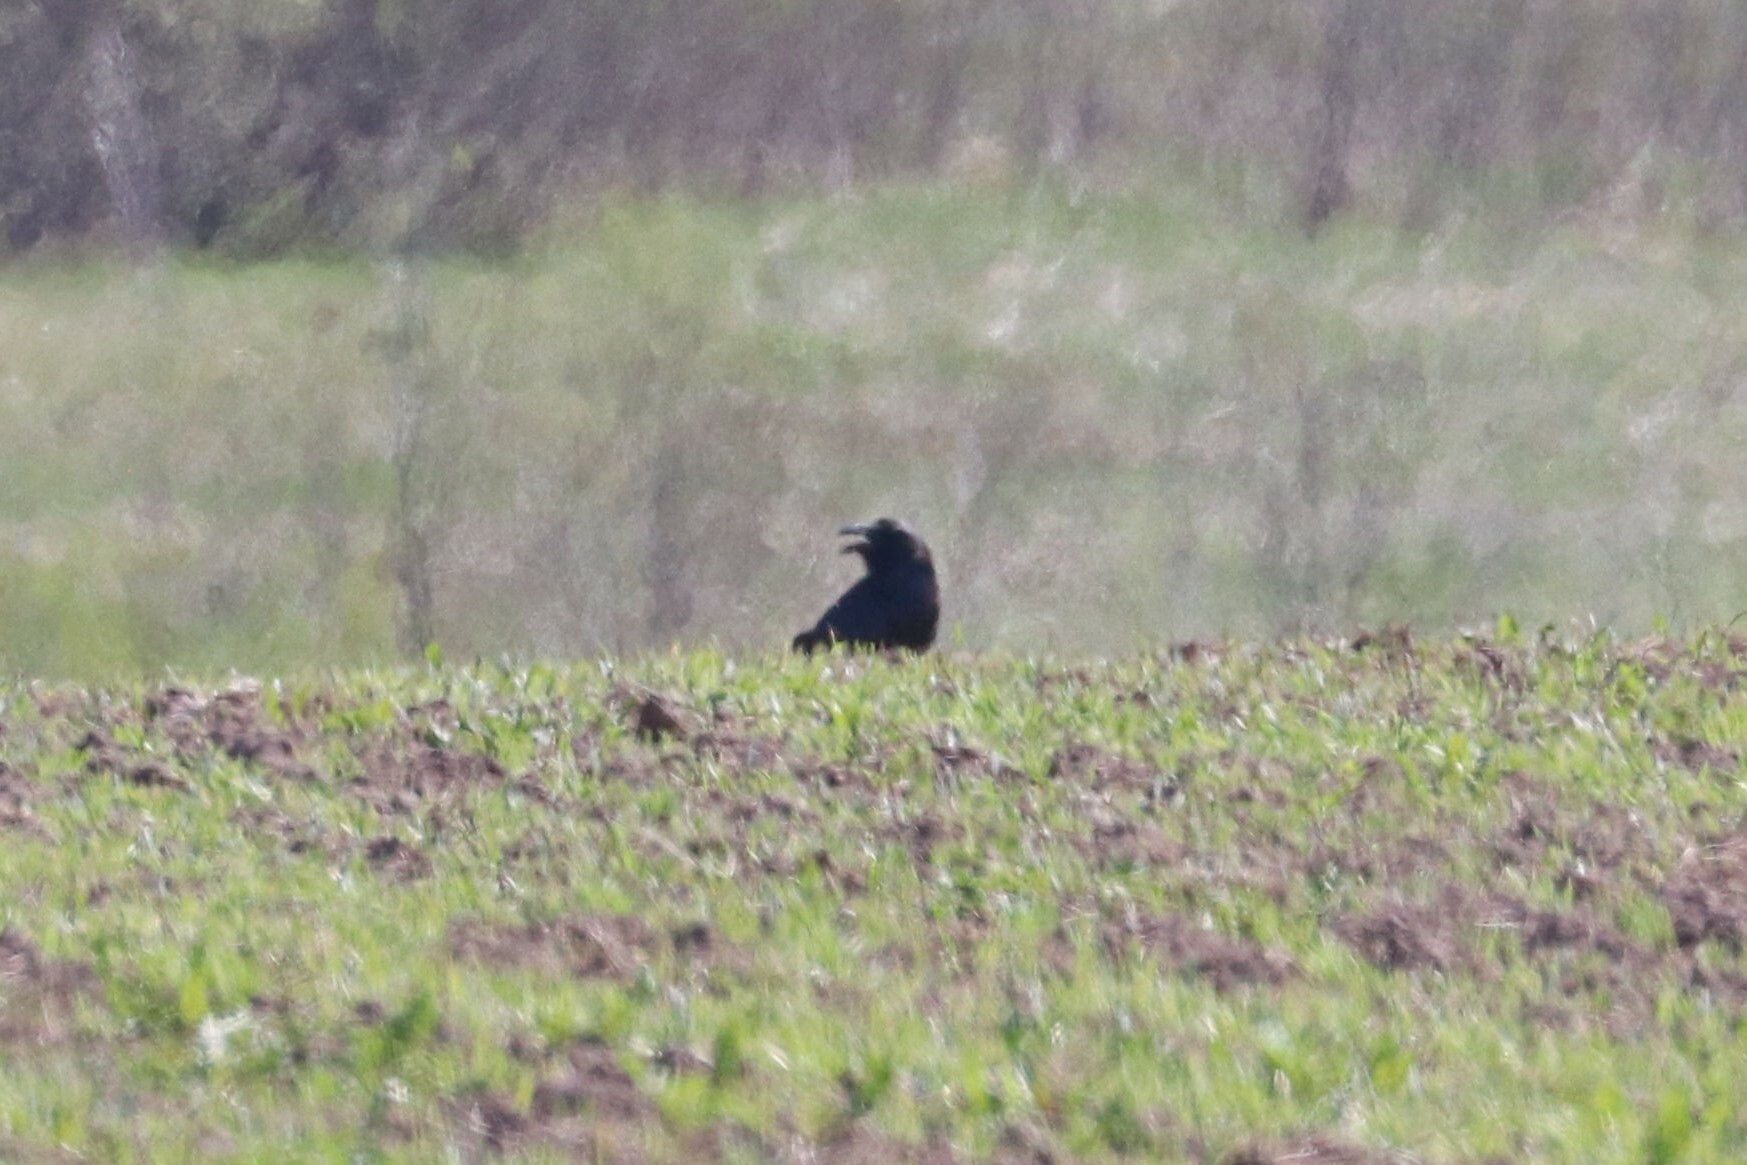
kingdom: Animalia
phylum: Chordata
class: Aves
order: Passeriformes
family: Corvidae
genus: Corvus
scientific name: Corvus corax
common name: Common raven
